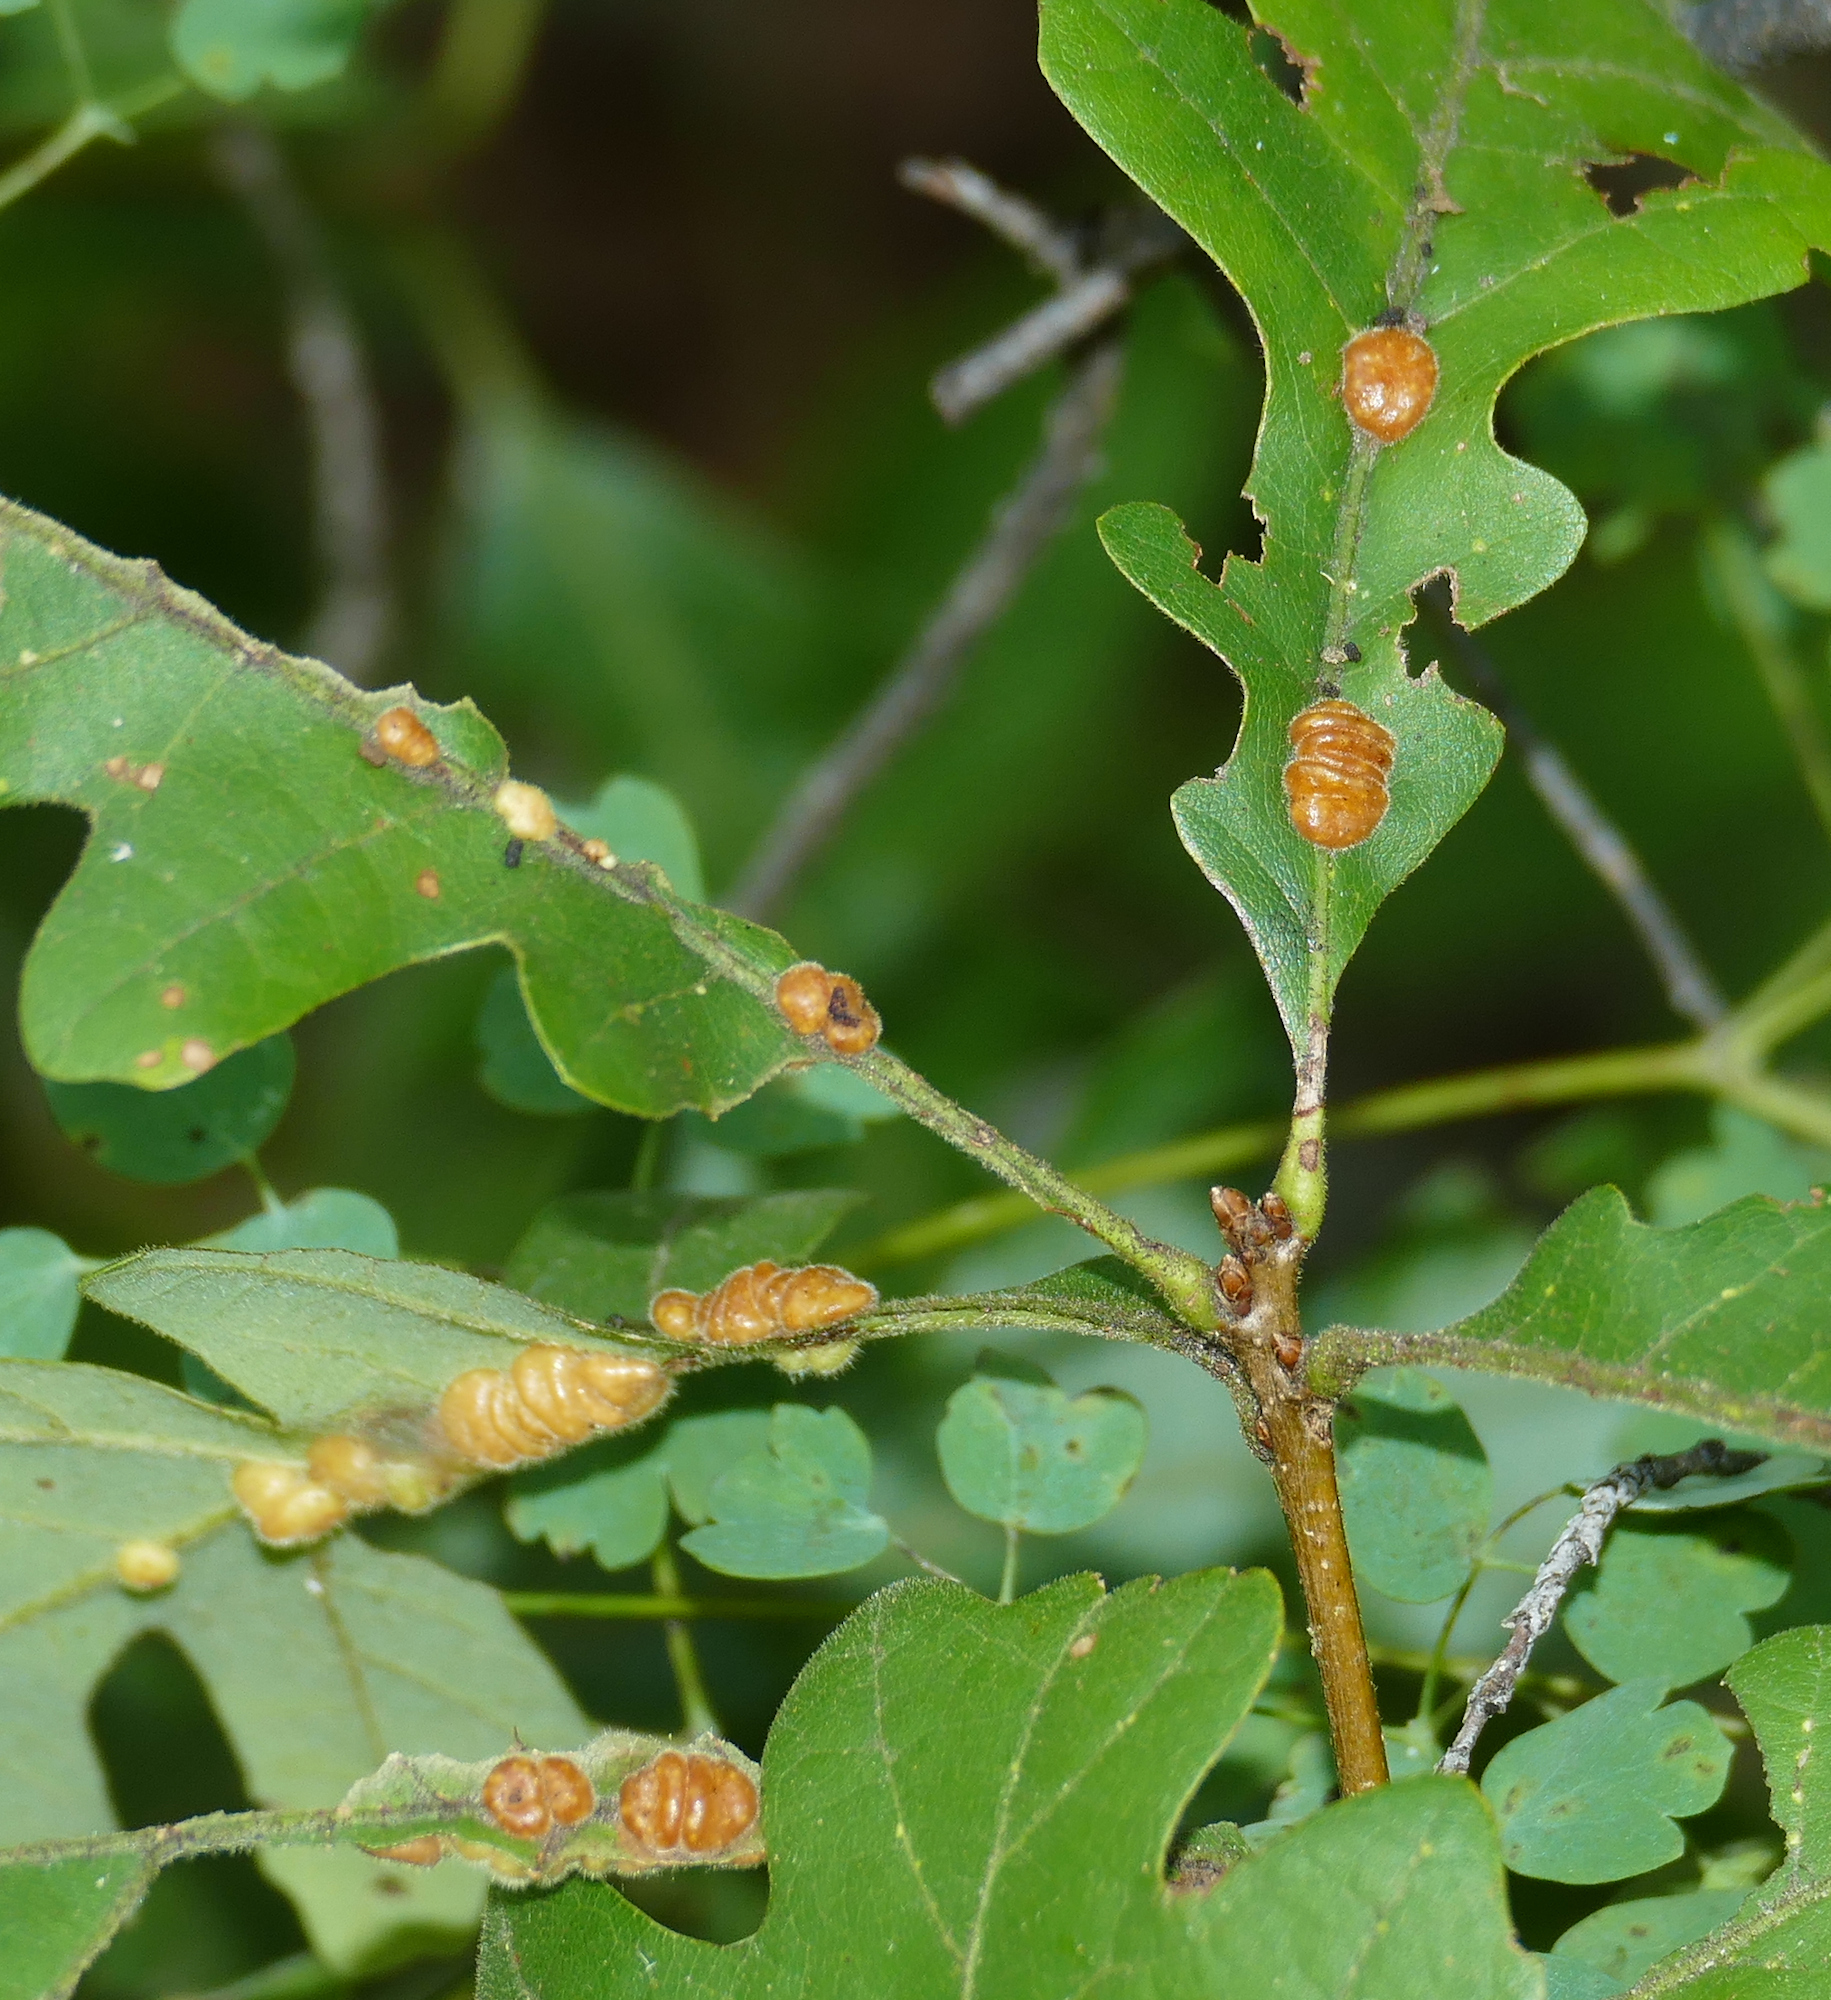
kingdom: Animalia
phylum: Arthropoda
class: Insecta
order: Hymenoptera
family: Cynipidae
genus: Trigonaspis
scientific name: Trigonaspis
